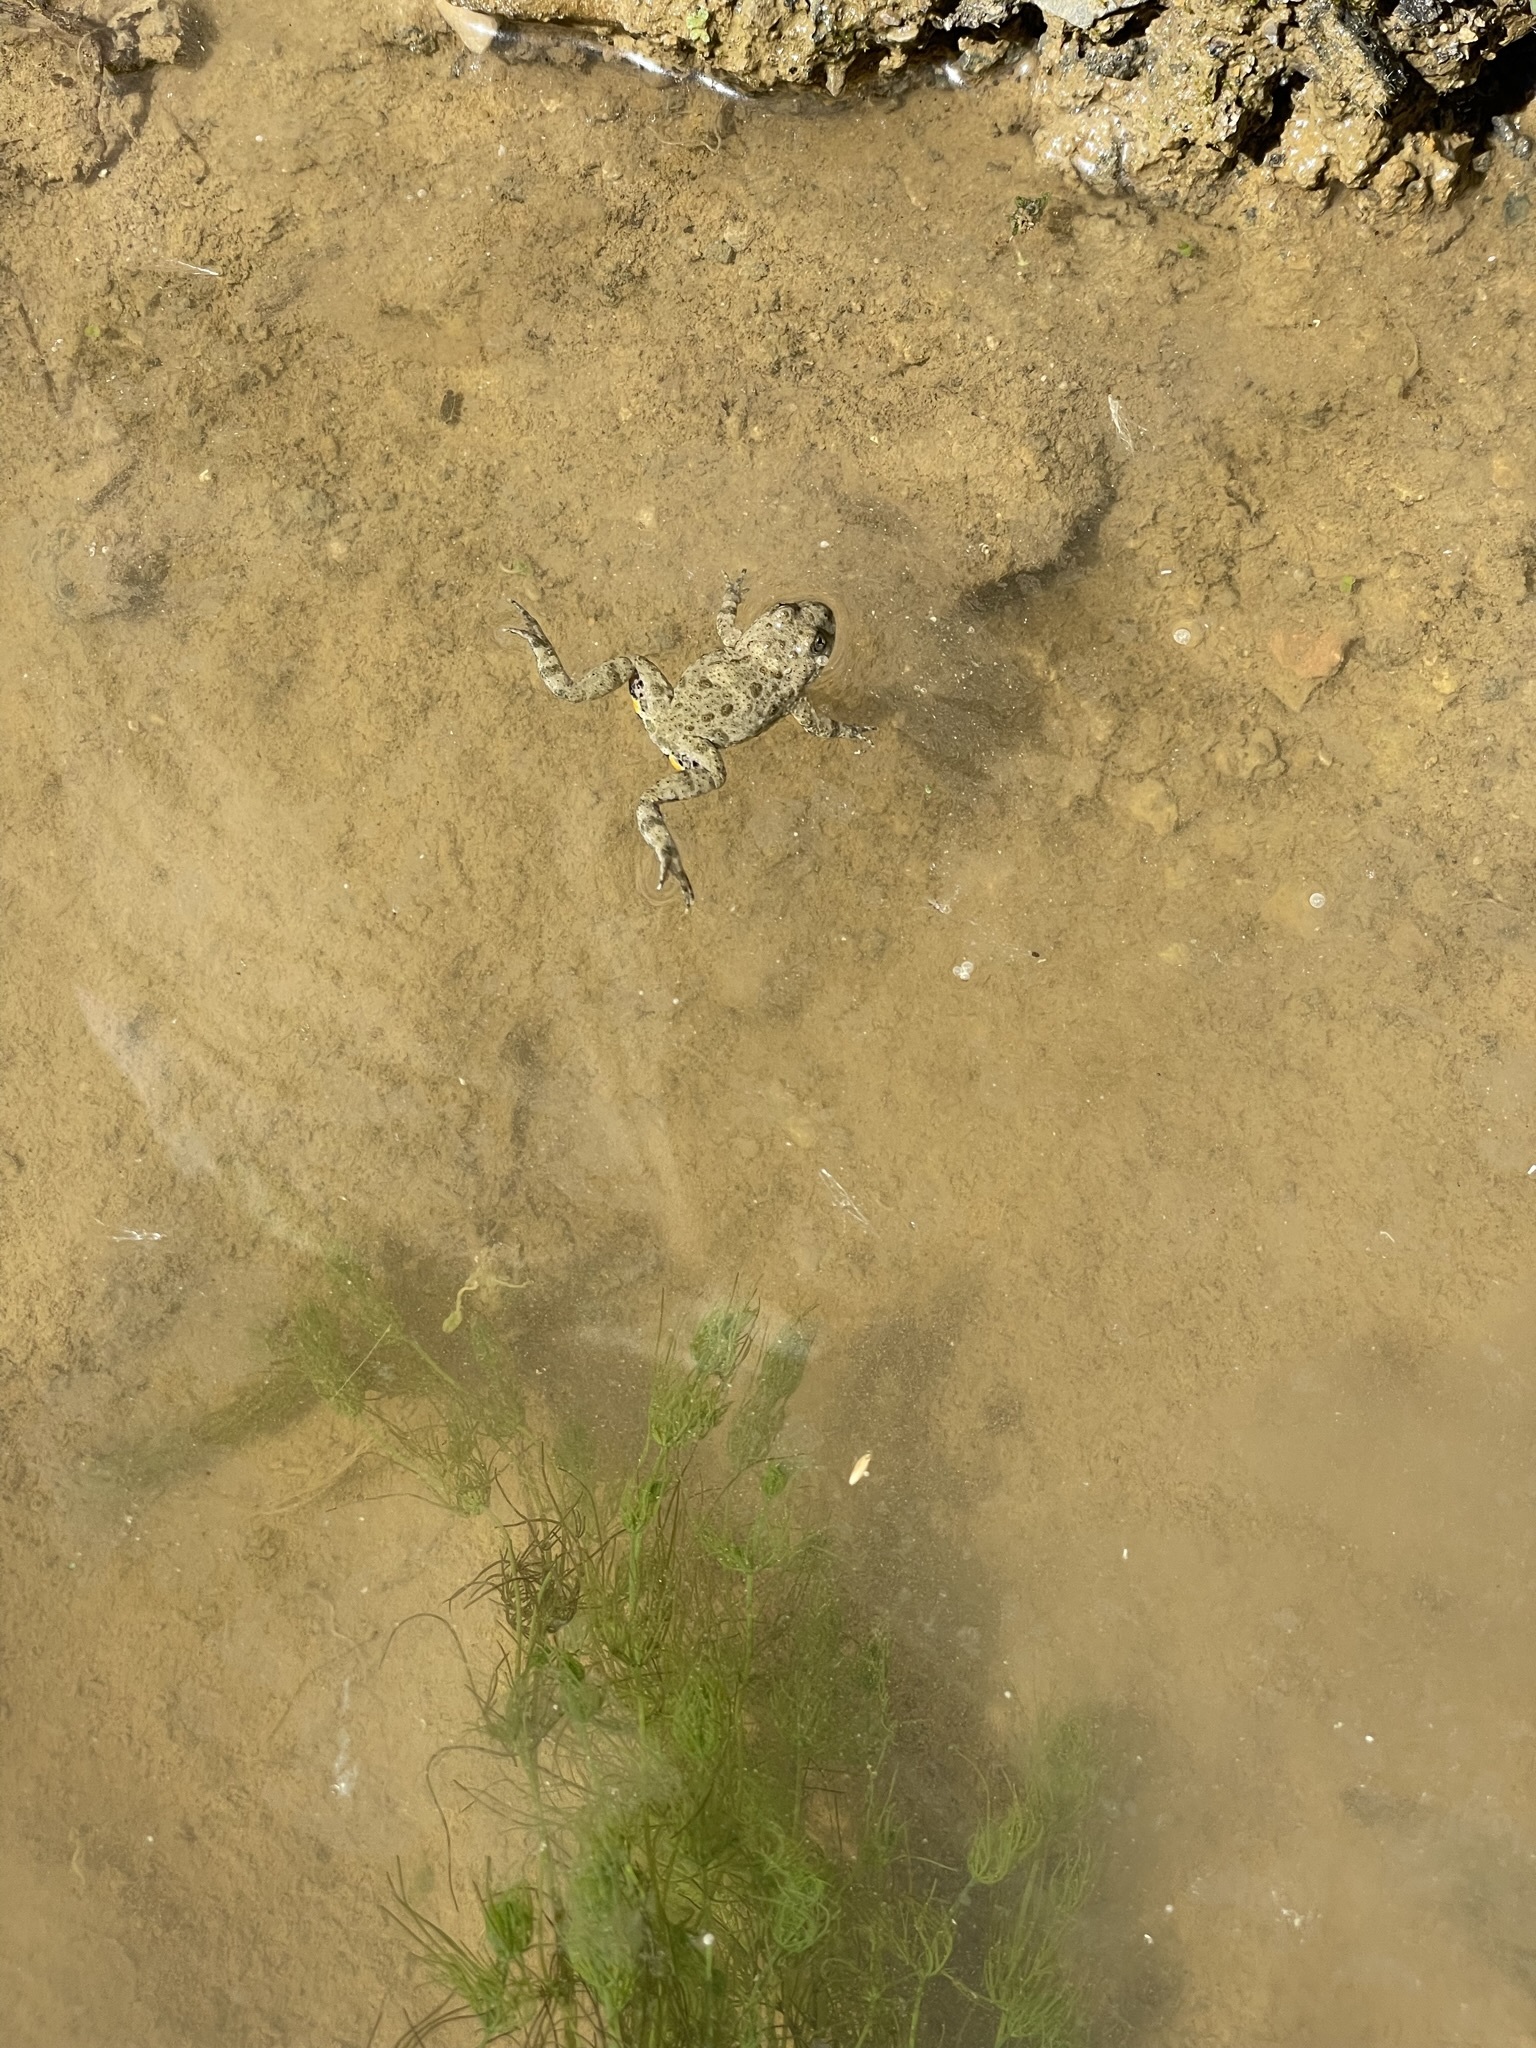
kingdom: Animalia
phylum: Chordata
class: Amphibia
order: Anura
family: Bombinatoridae
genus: Bombina
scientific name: Bombina variegata
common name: Yellow-bellied toad
